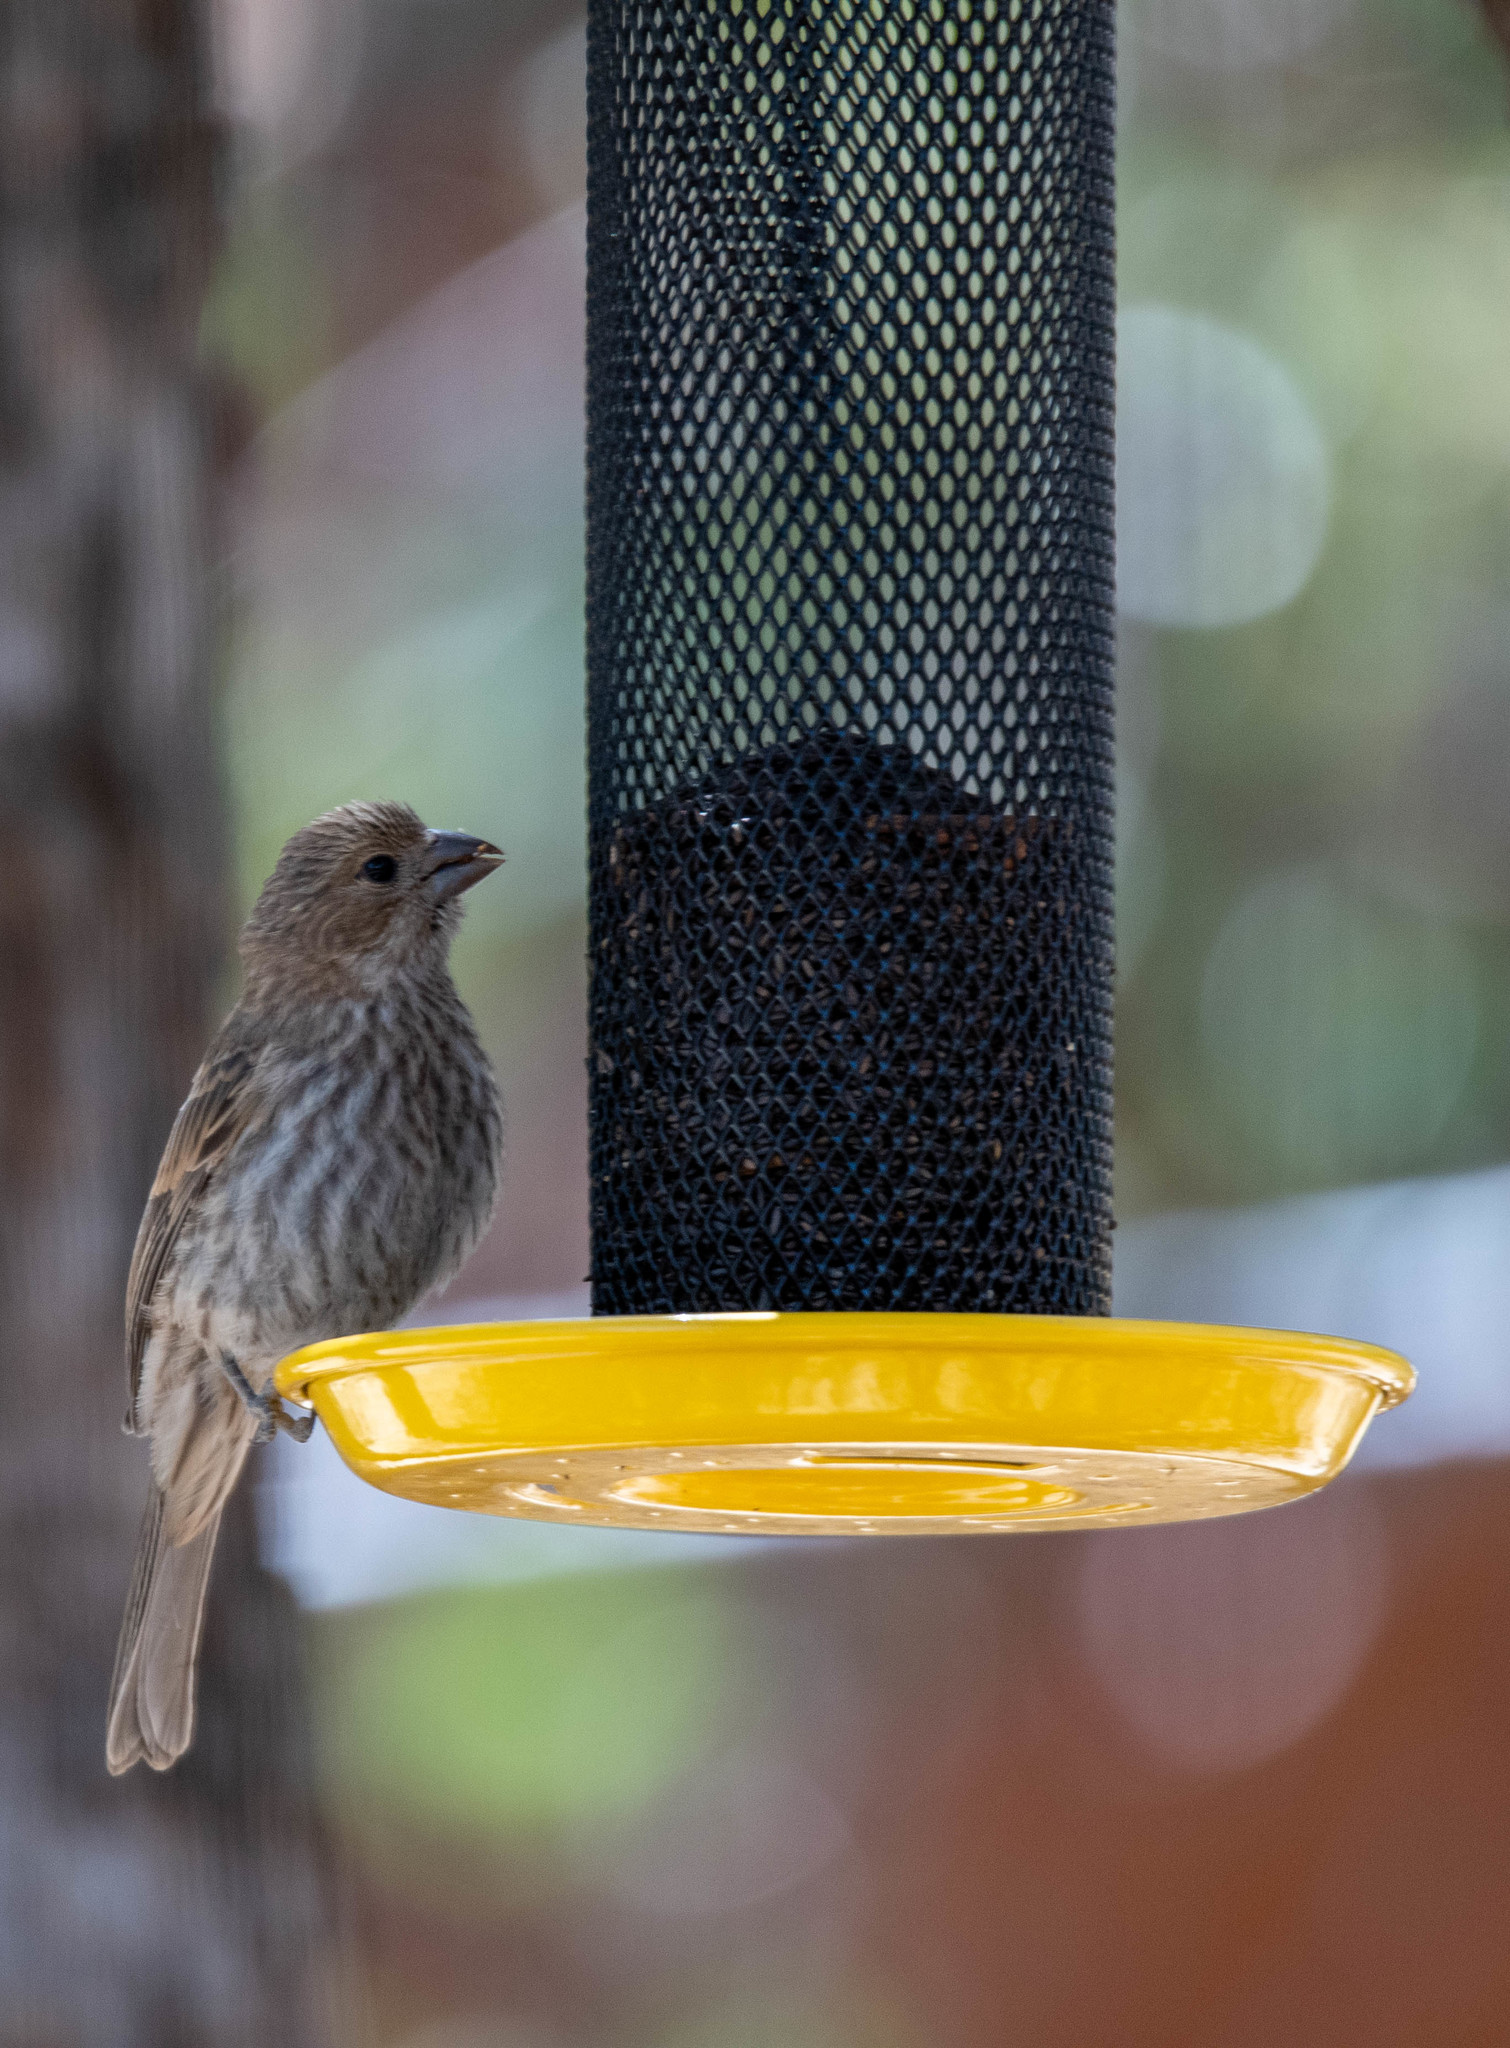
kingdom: Animalia
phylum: Chordata
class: Aves
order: Passeriformes
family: Fringillidae
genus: Haemorhous
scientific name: Haemorhous mexicanus
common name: House finch
